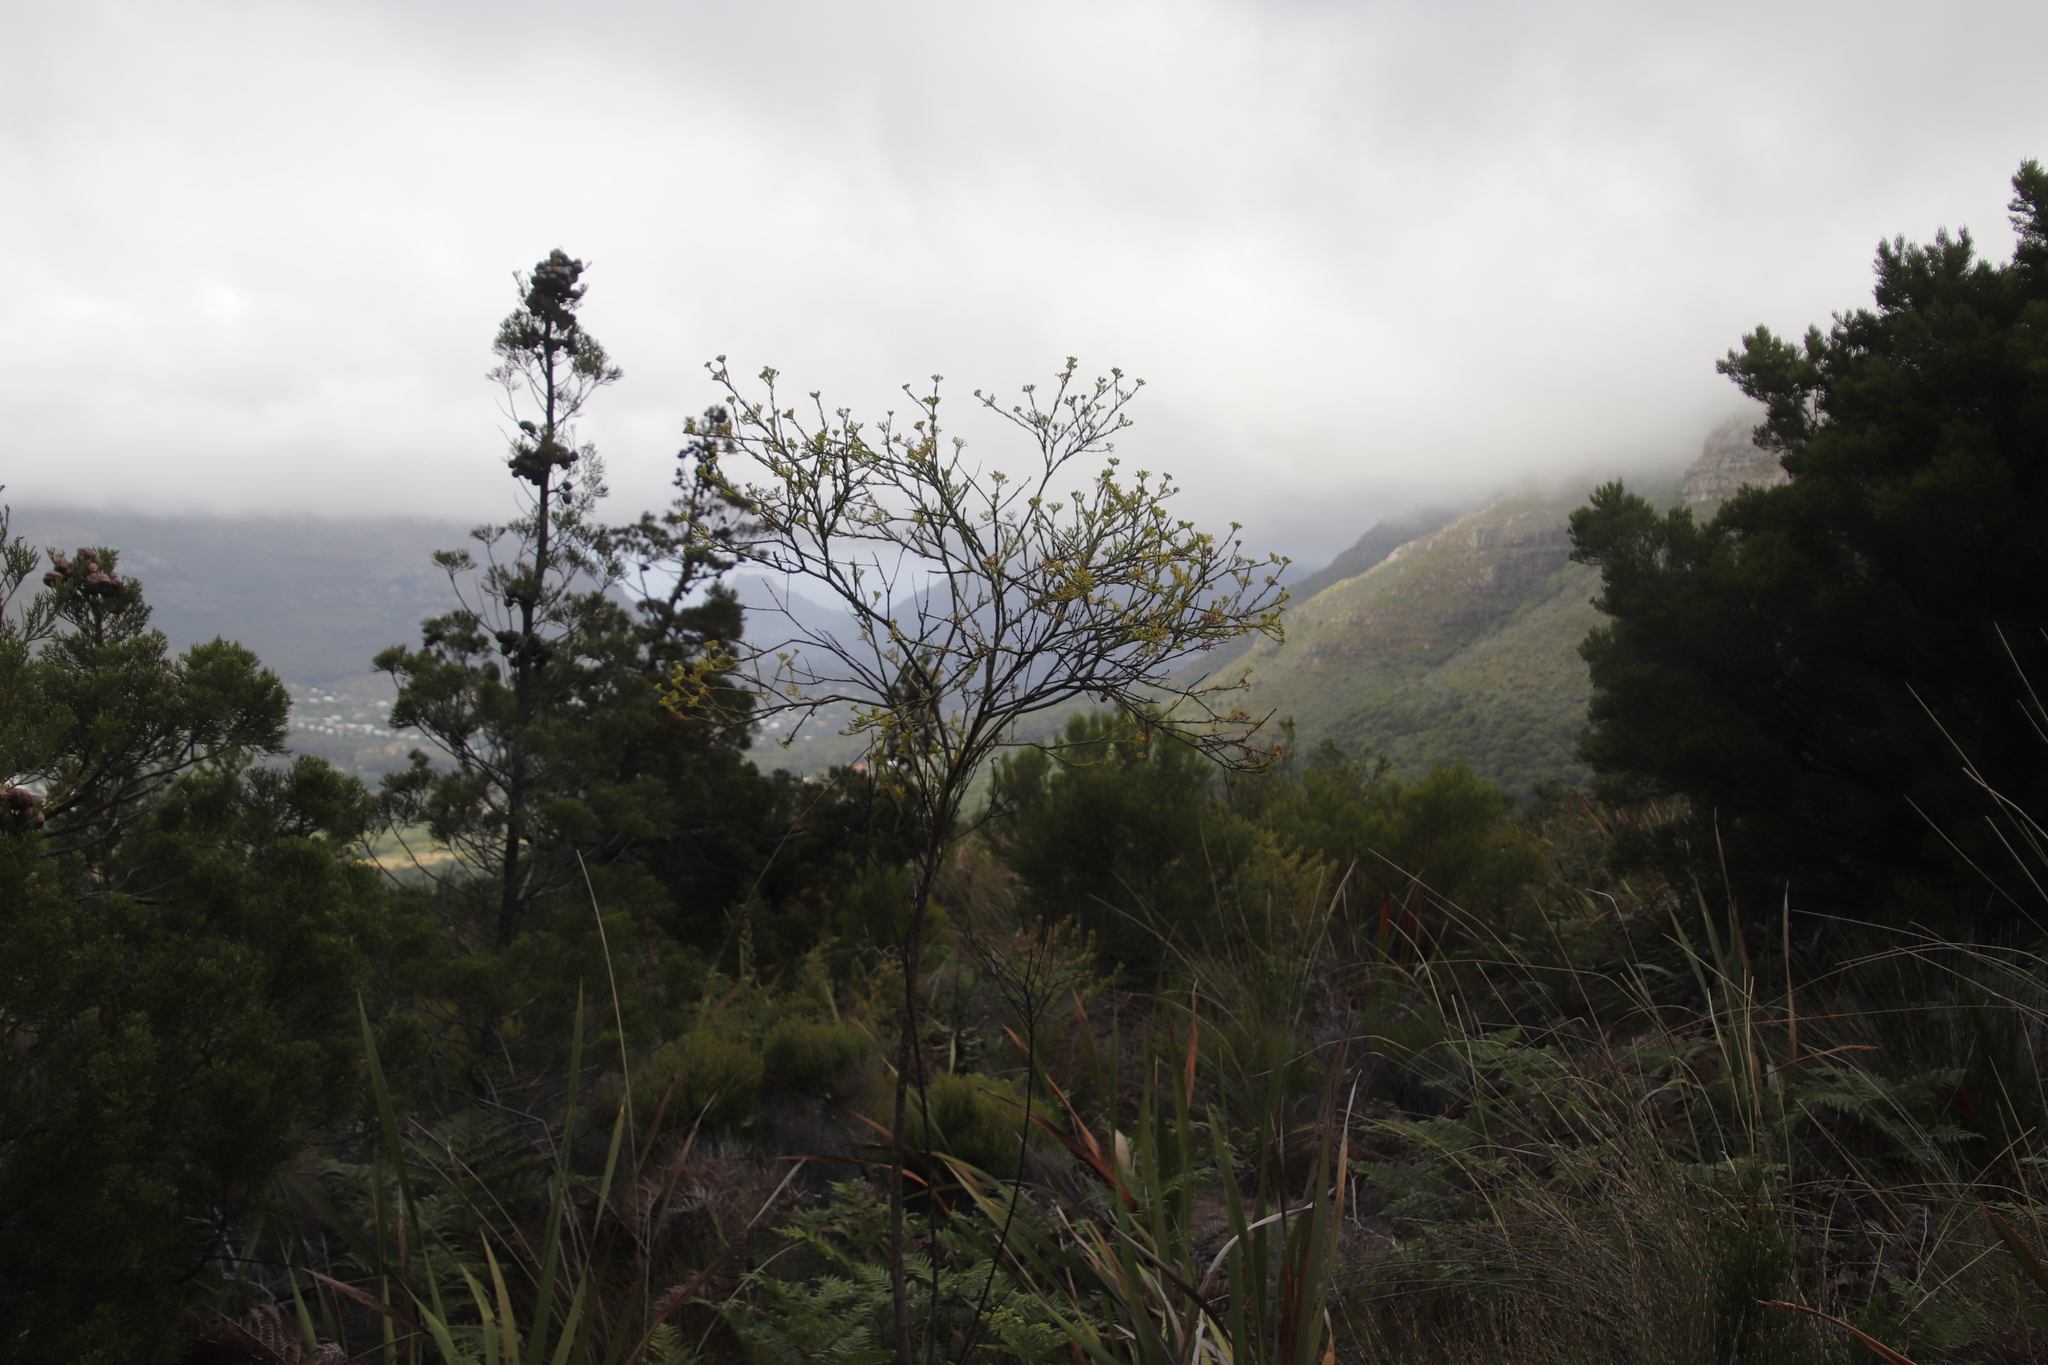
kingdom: Plantae
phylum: Tracheophyta
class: Magnoliopsida
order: Santalales
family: Thesiaceae
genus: Thesium
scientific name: Thesium strictum
